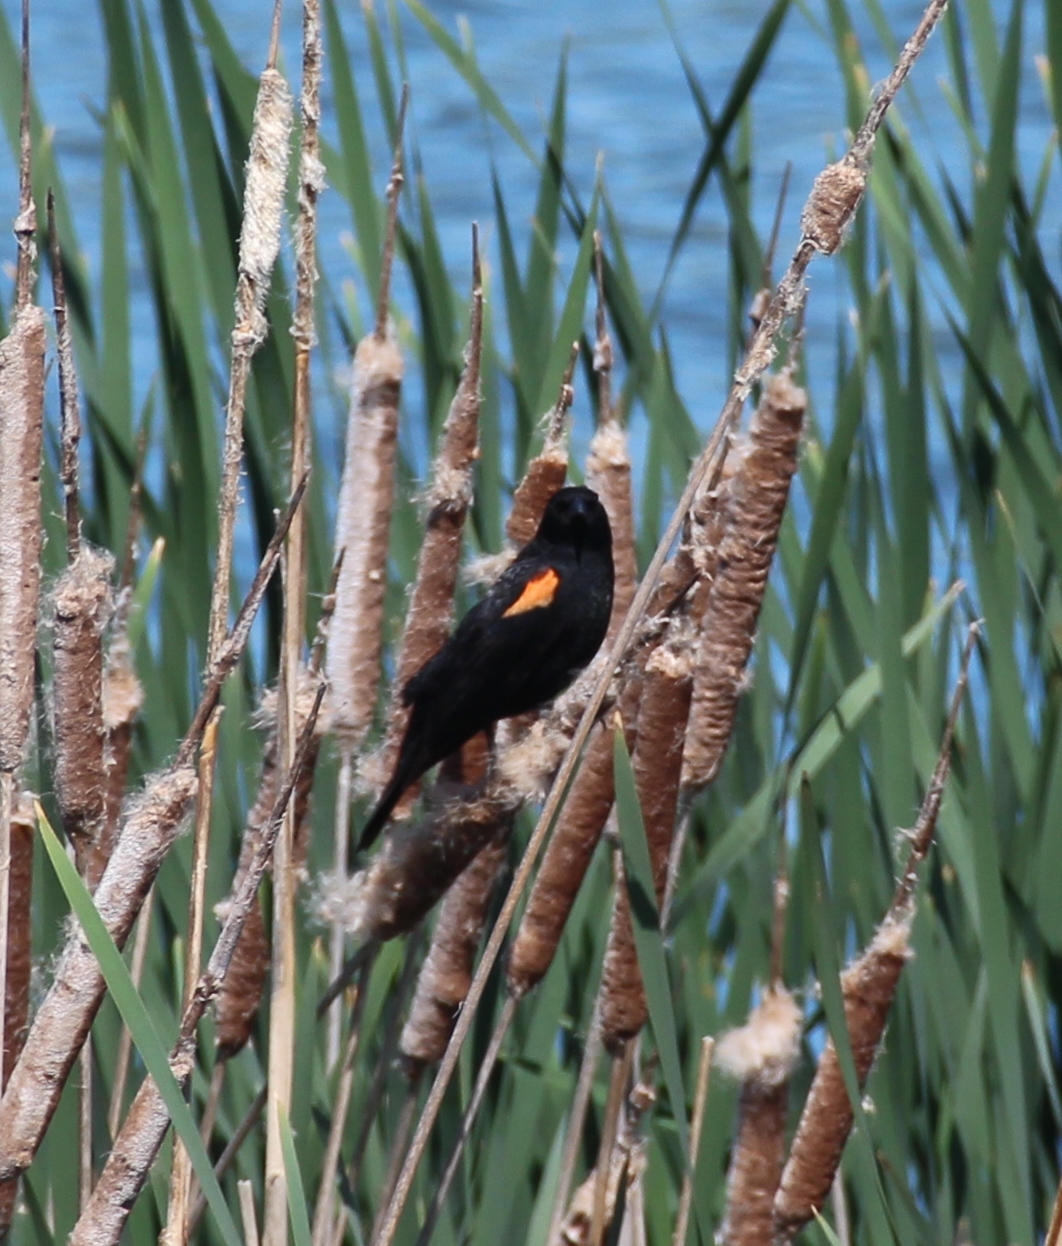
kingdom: Animalia
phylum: Chordata
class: Aves
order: Passeriformes
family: Icteridae
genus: Agelaius
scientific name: Agelaius phoeniceus
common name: Red-winged blackbird
